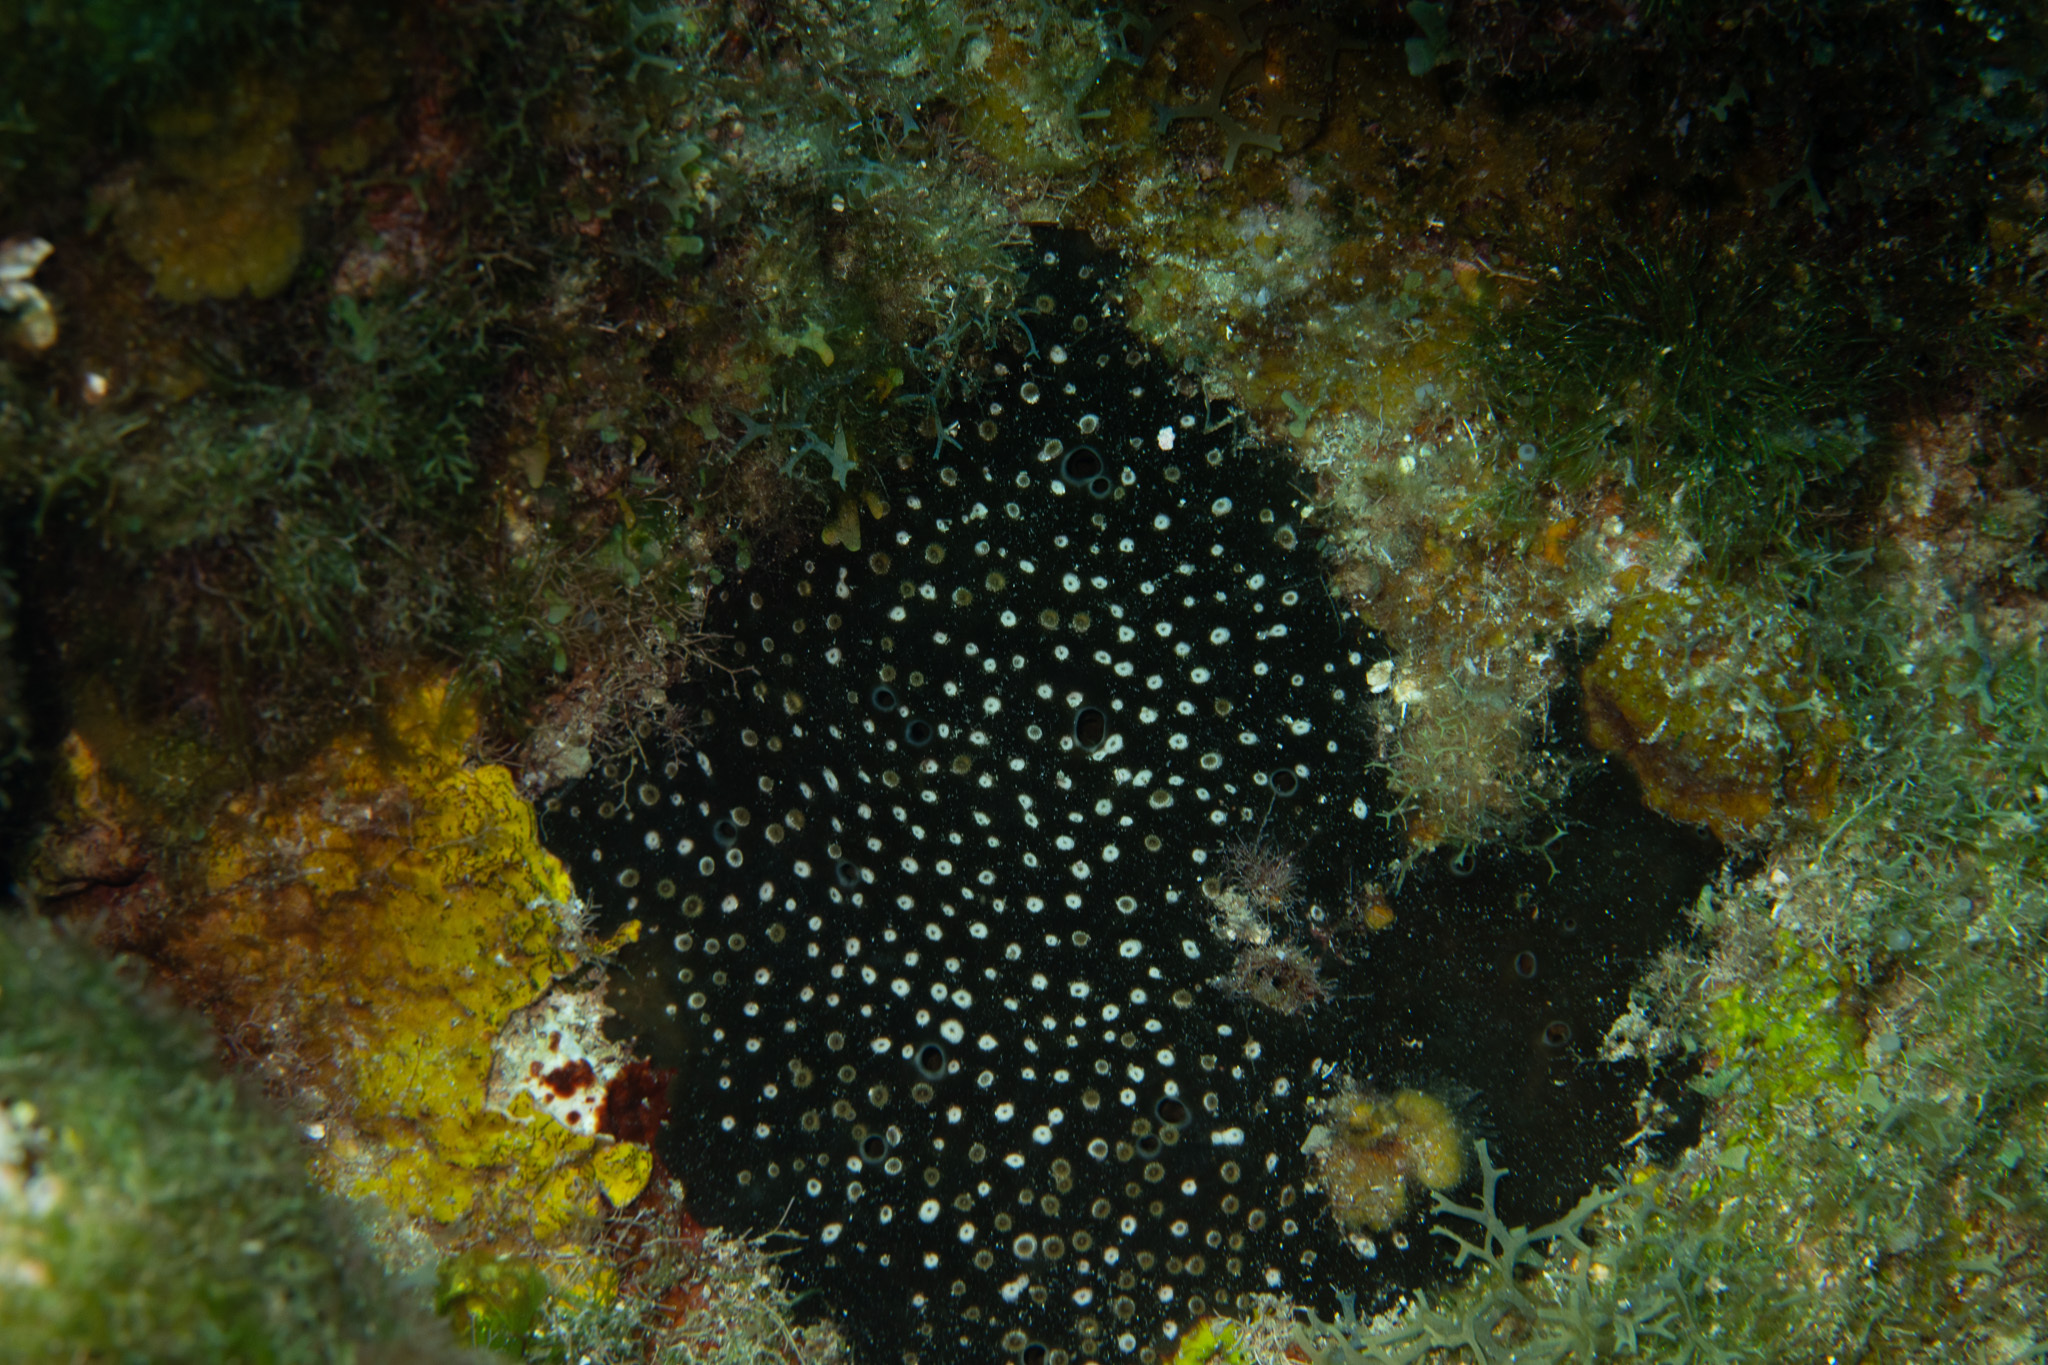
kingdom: Animalia
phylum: Porifera
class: Demospongiae
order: Clionaida
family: Clionaidae
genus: Cliona
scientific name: Cliona caribbaea
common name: Green boring sponge
